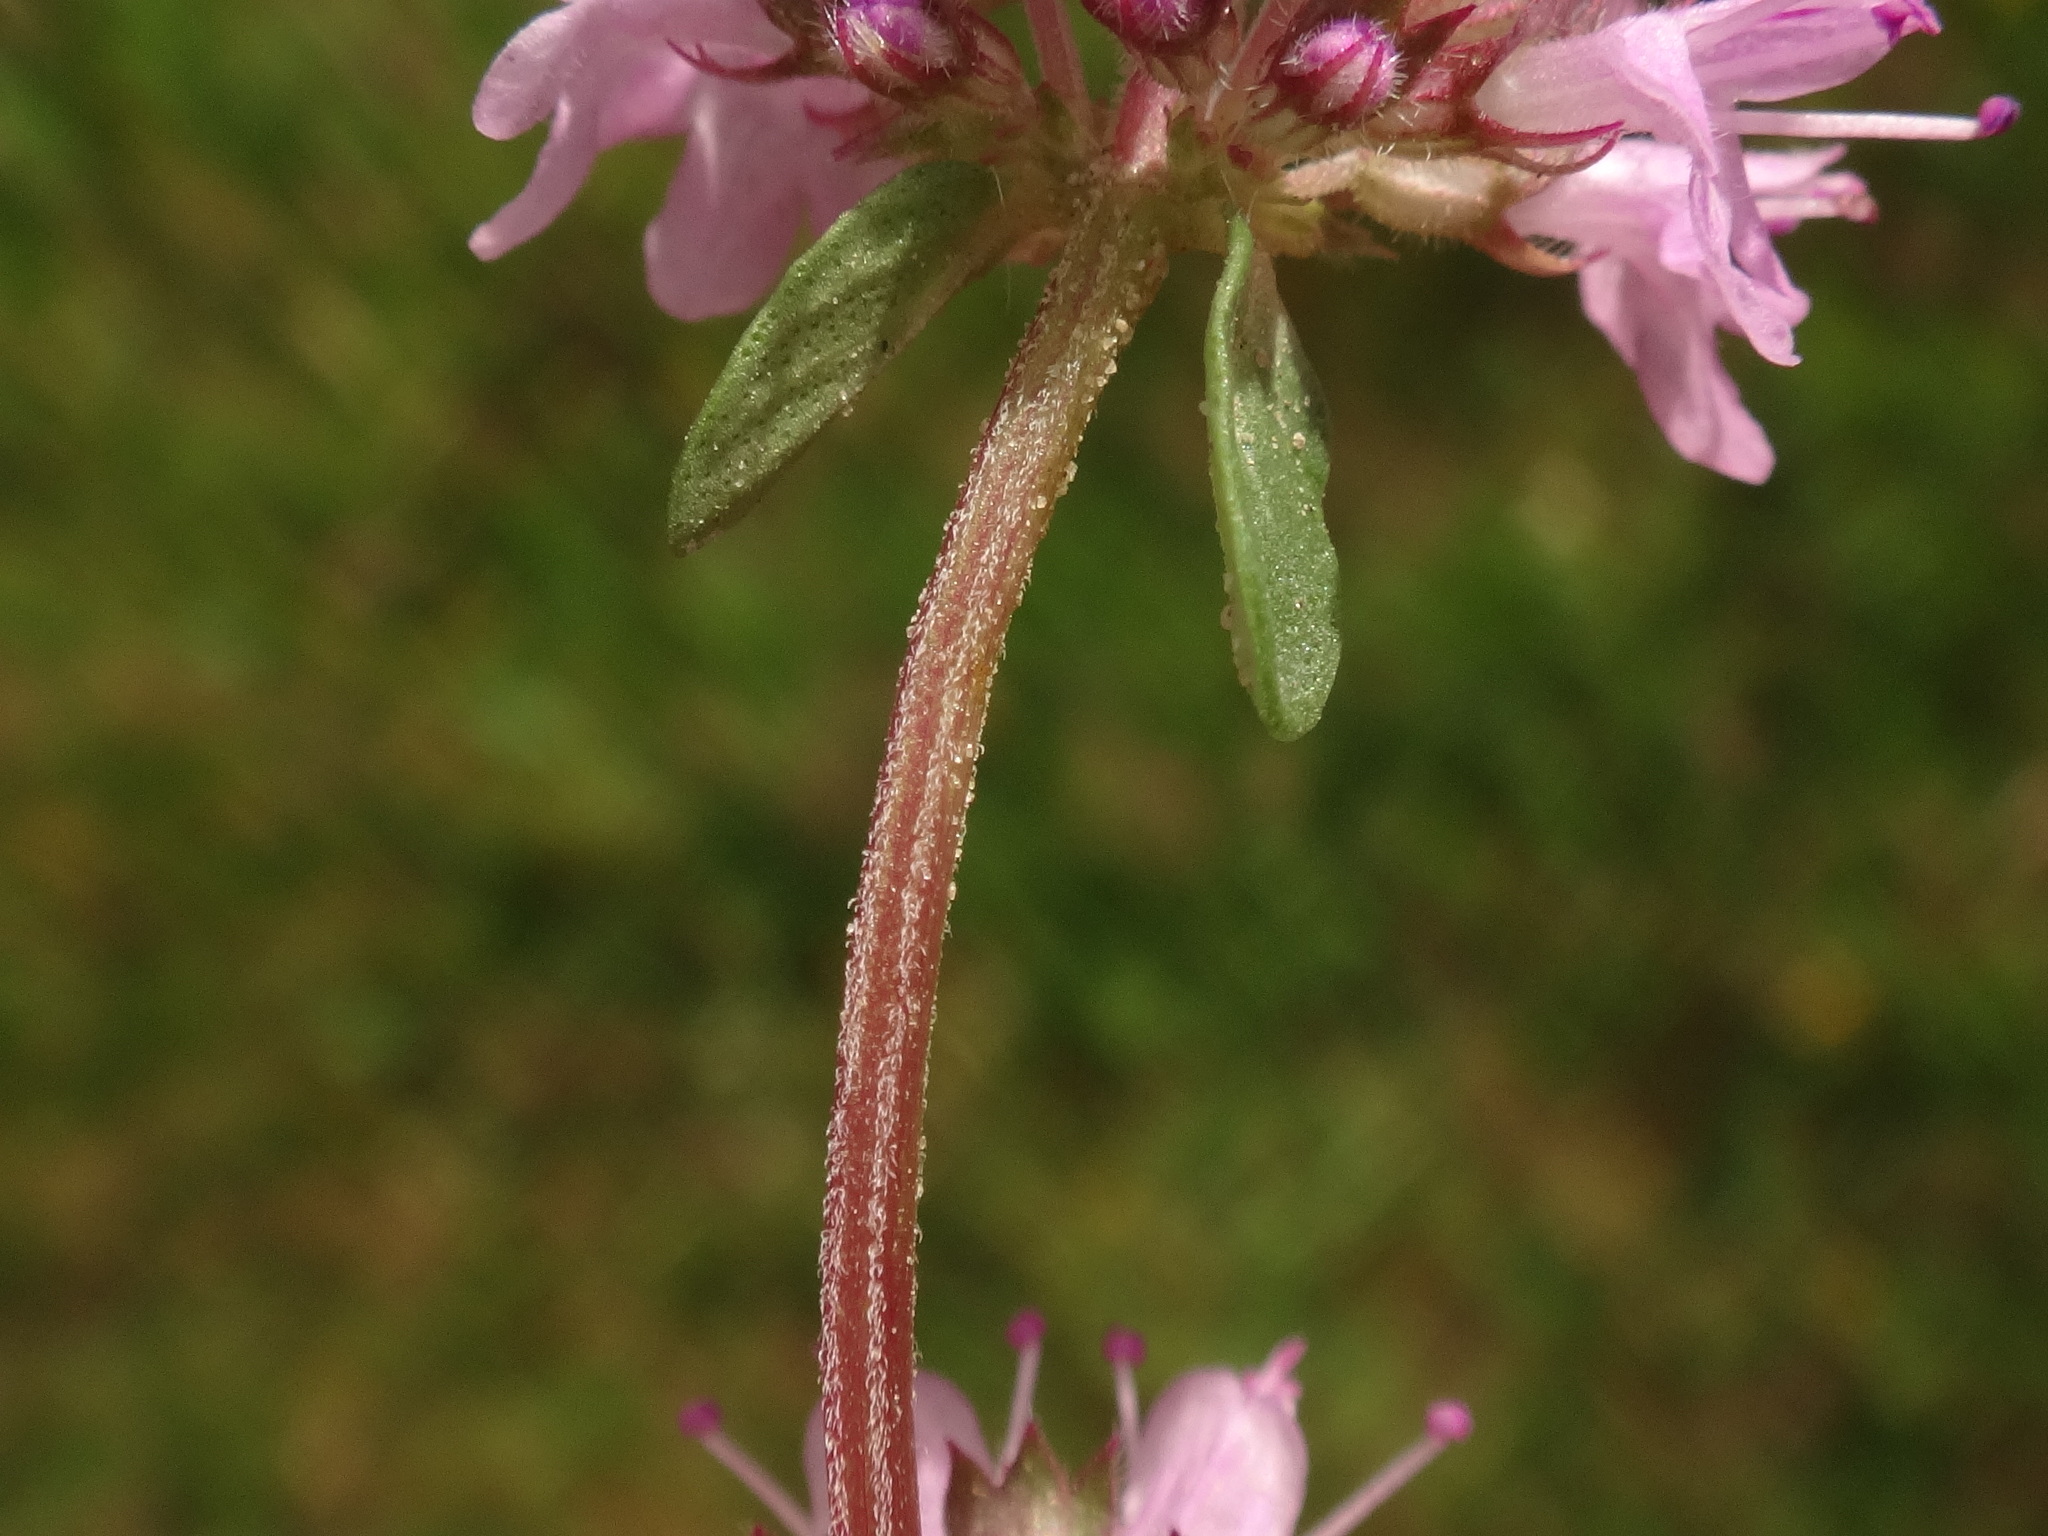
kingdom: Plantae
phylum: Tracheophyta
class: Magnoliopsida
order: Lamiales
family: Lamiaceae
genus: Thymus
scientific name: Thymus pulegioides
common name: Large thyme
